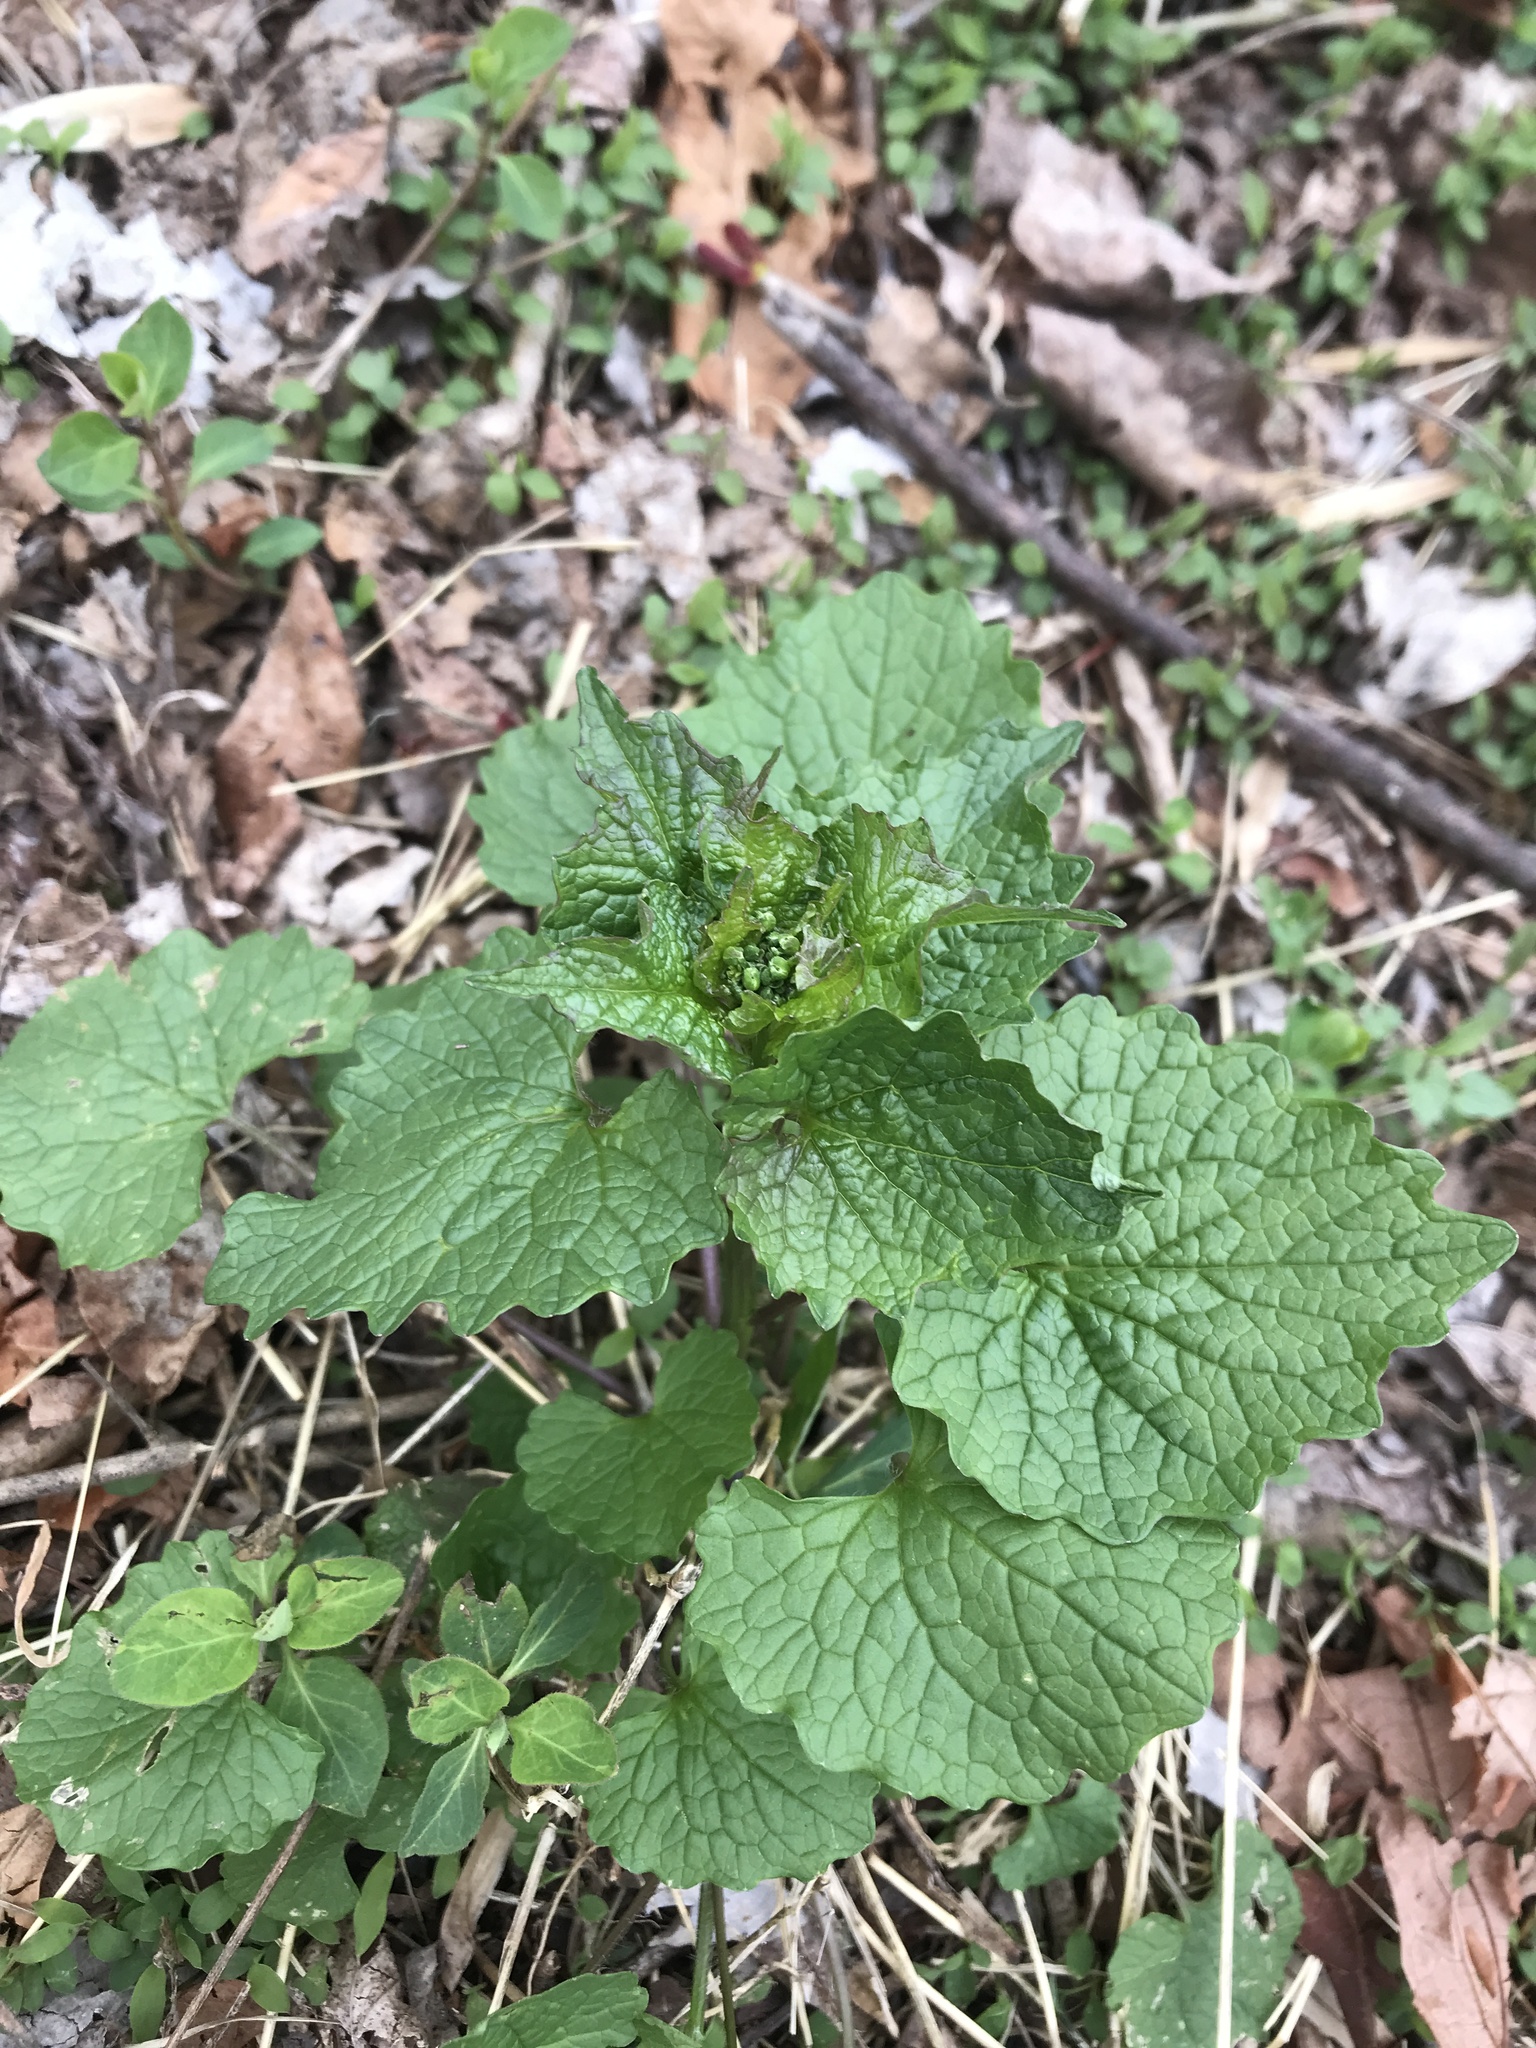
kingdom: Plantae
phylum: Tracheophyta
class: Magnoliopsida
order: Brassicales
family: Brassicaceae
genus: Alliaria
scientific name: Alliaria petiolata
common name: Garlic mustard
